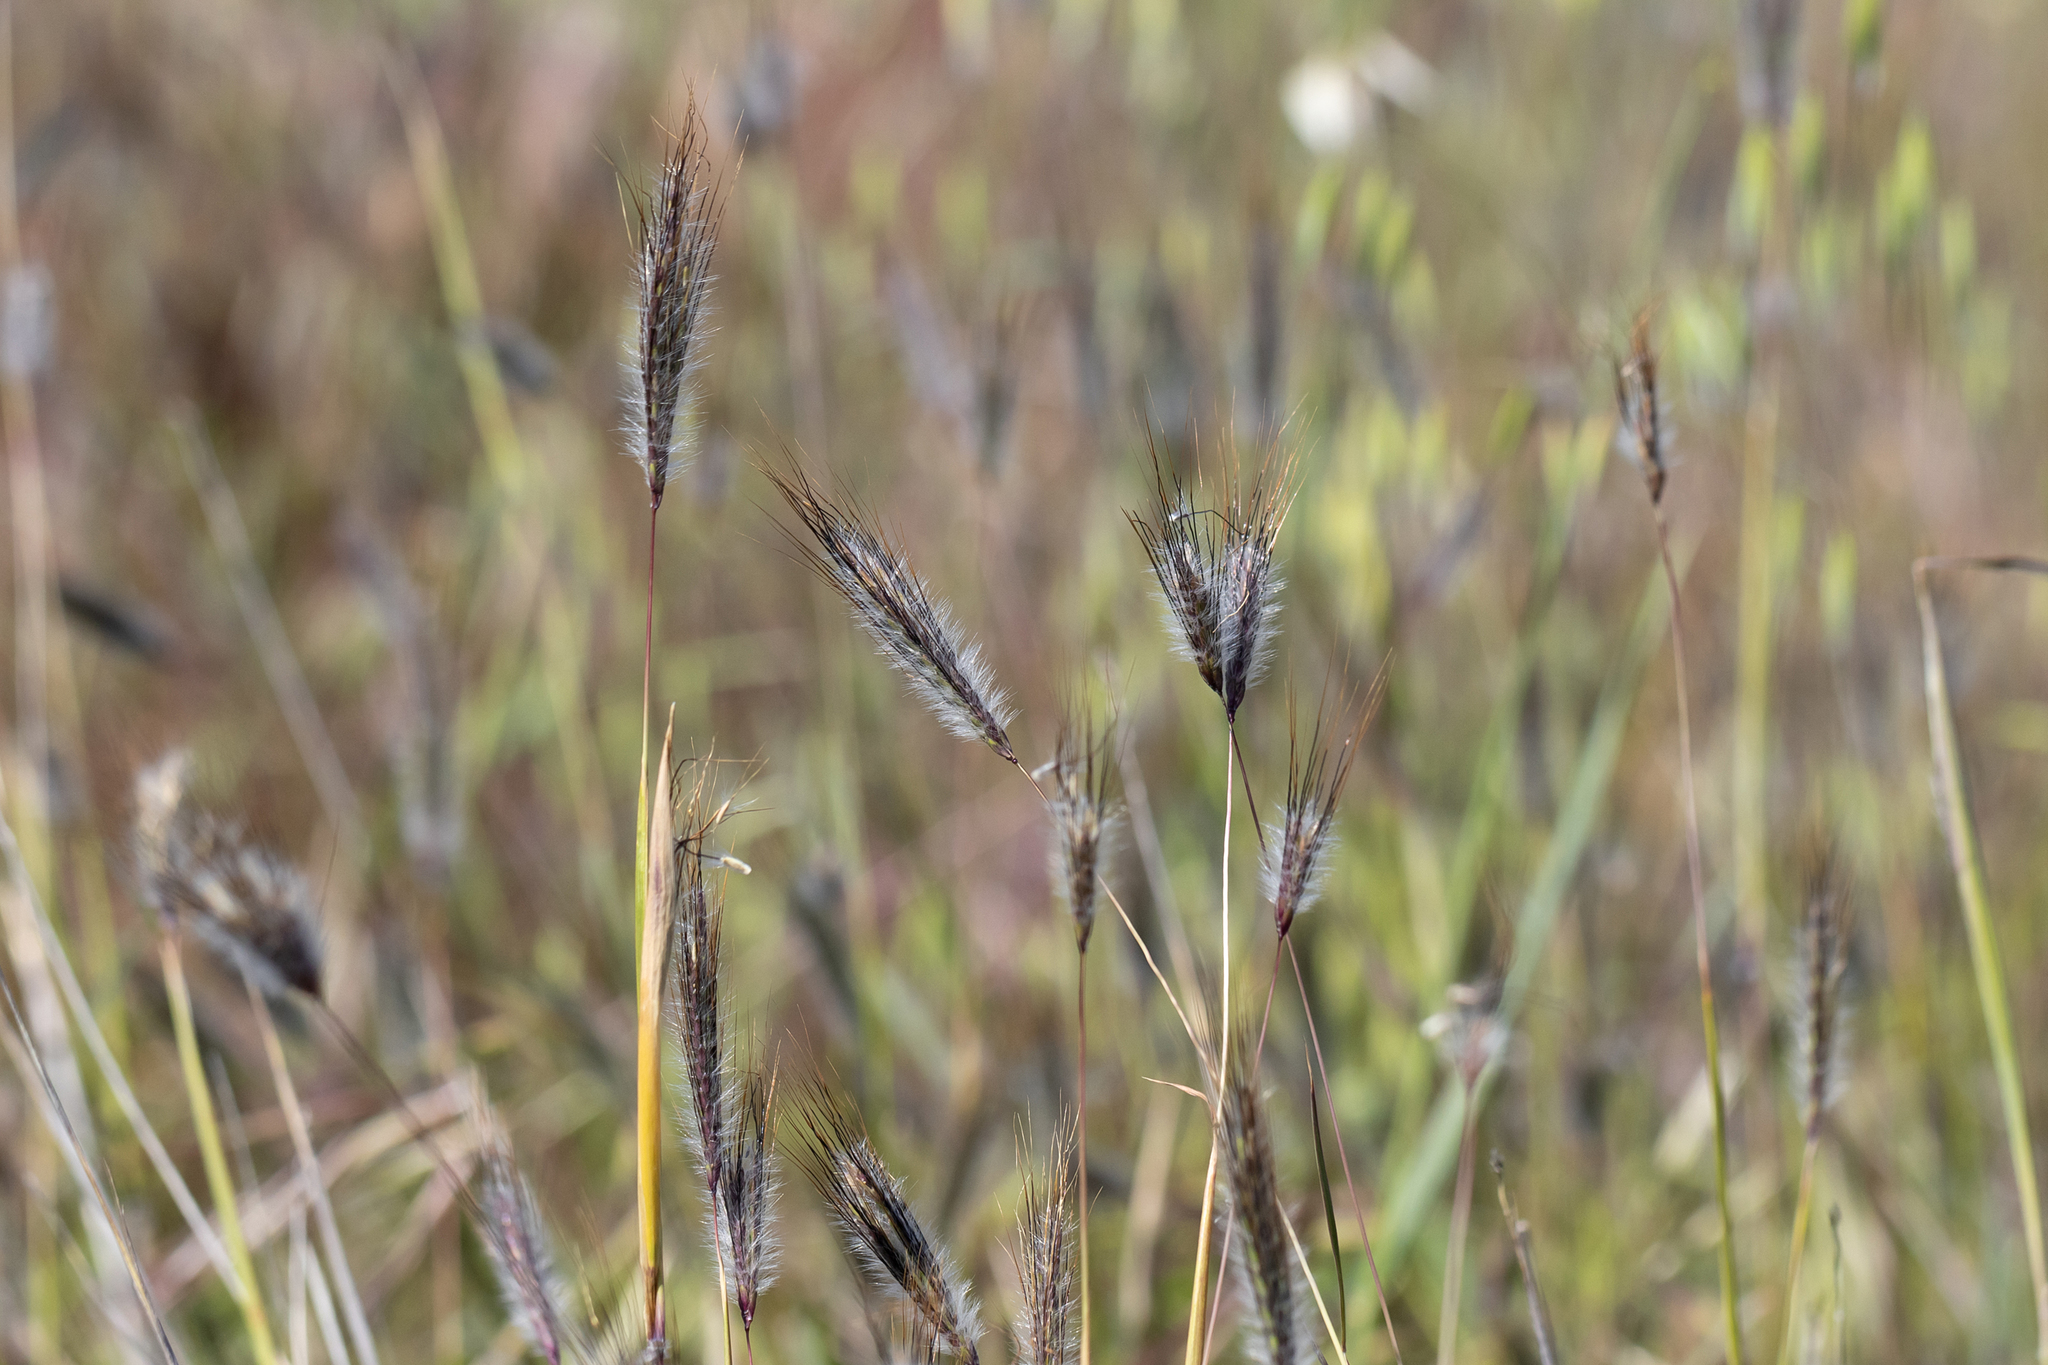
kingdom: Plantae
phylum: Tracheophyta
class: Liliopsida
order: Poales
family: Poaceae
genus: Dichanthium
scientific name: Dichanthium sericeum
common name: Silky bluestem
